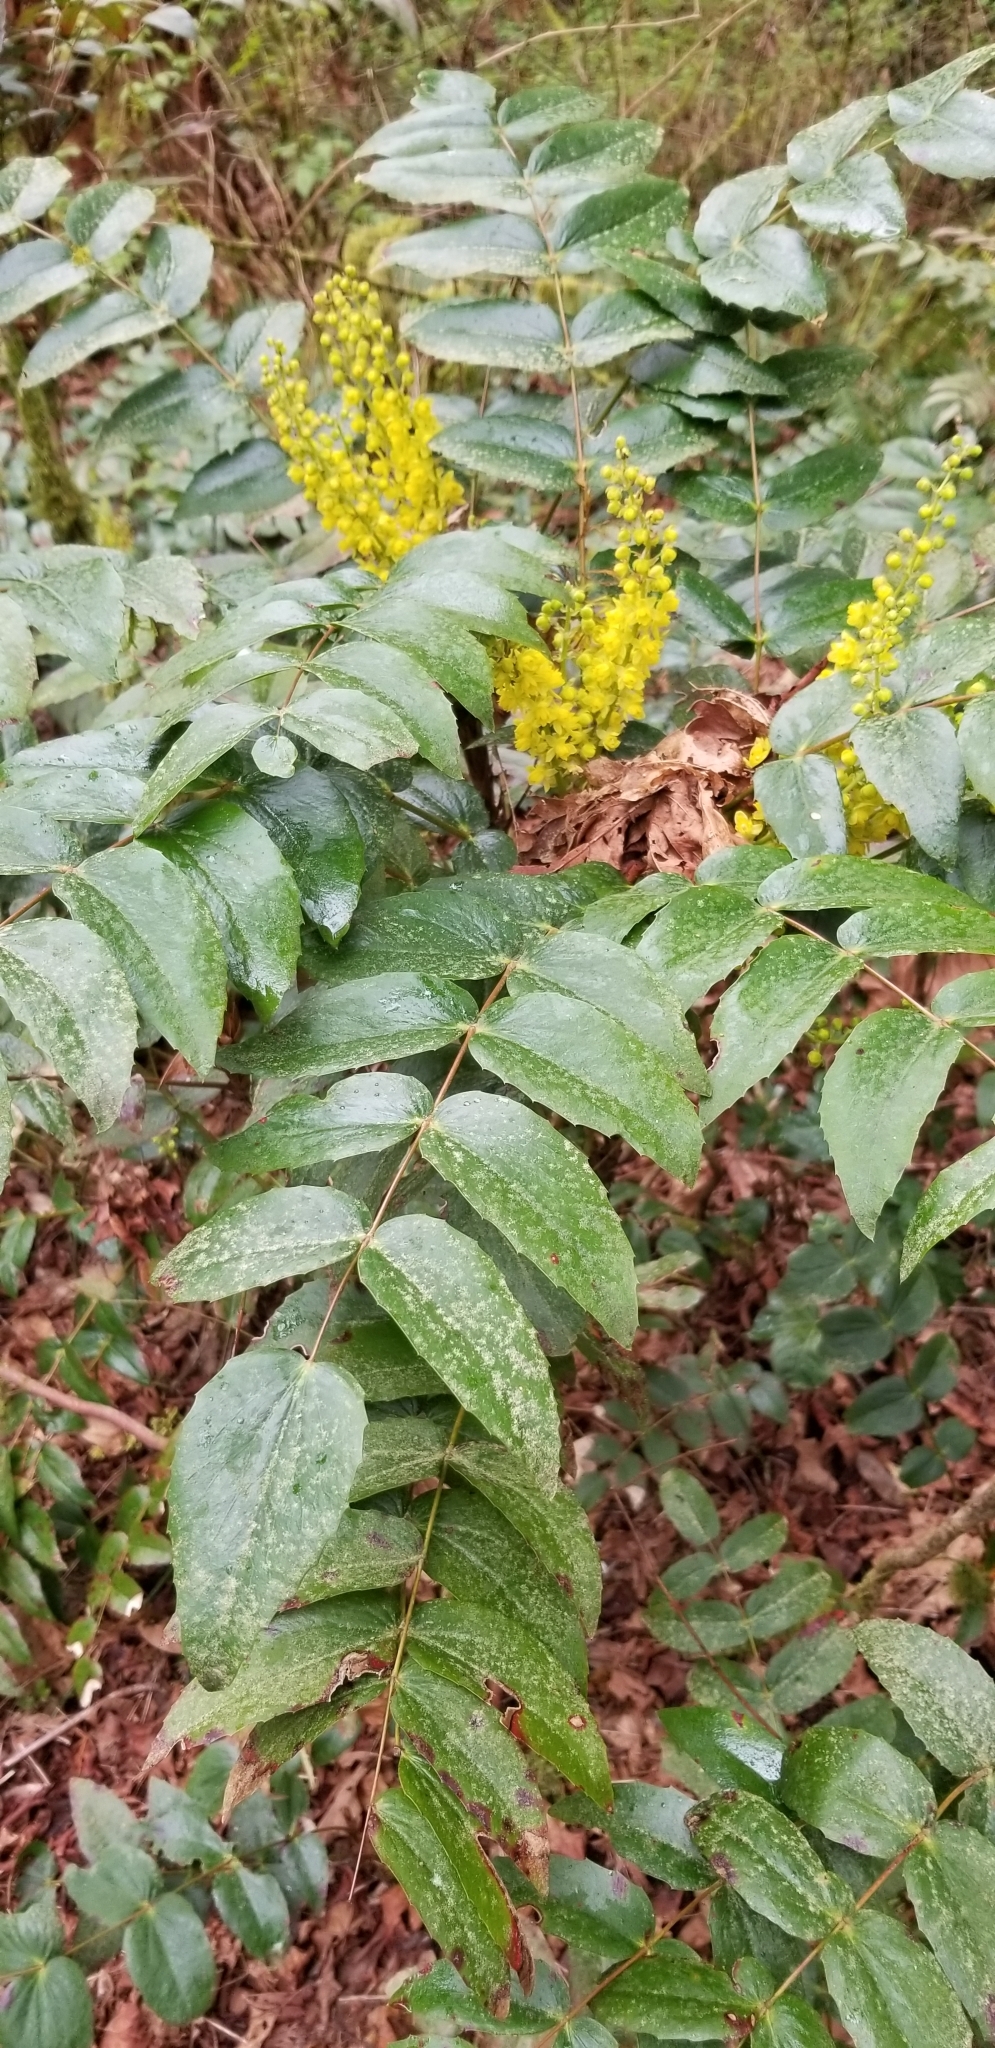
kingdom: Plantae
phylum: Tracheophyta
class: Magnoliopsida
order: Ranunculales
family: Berberidaceae
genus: Mahonia
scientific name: Mahonia nervosa
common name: Cascade oregon-grape
